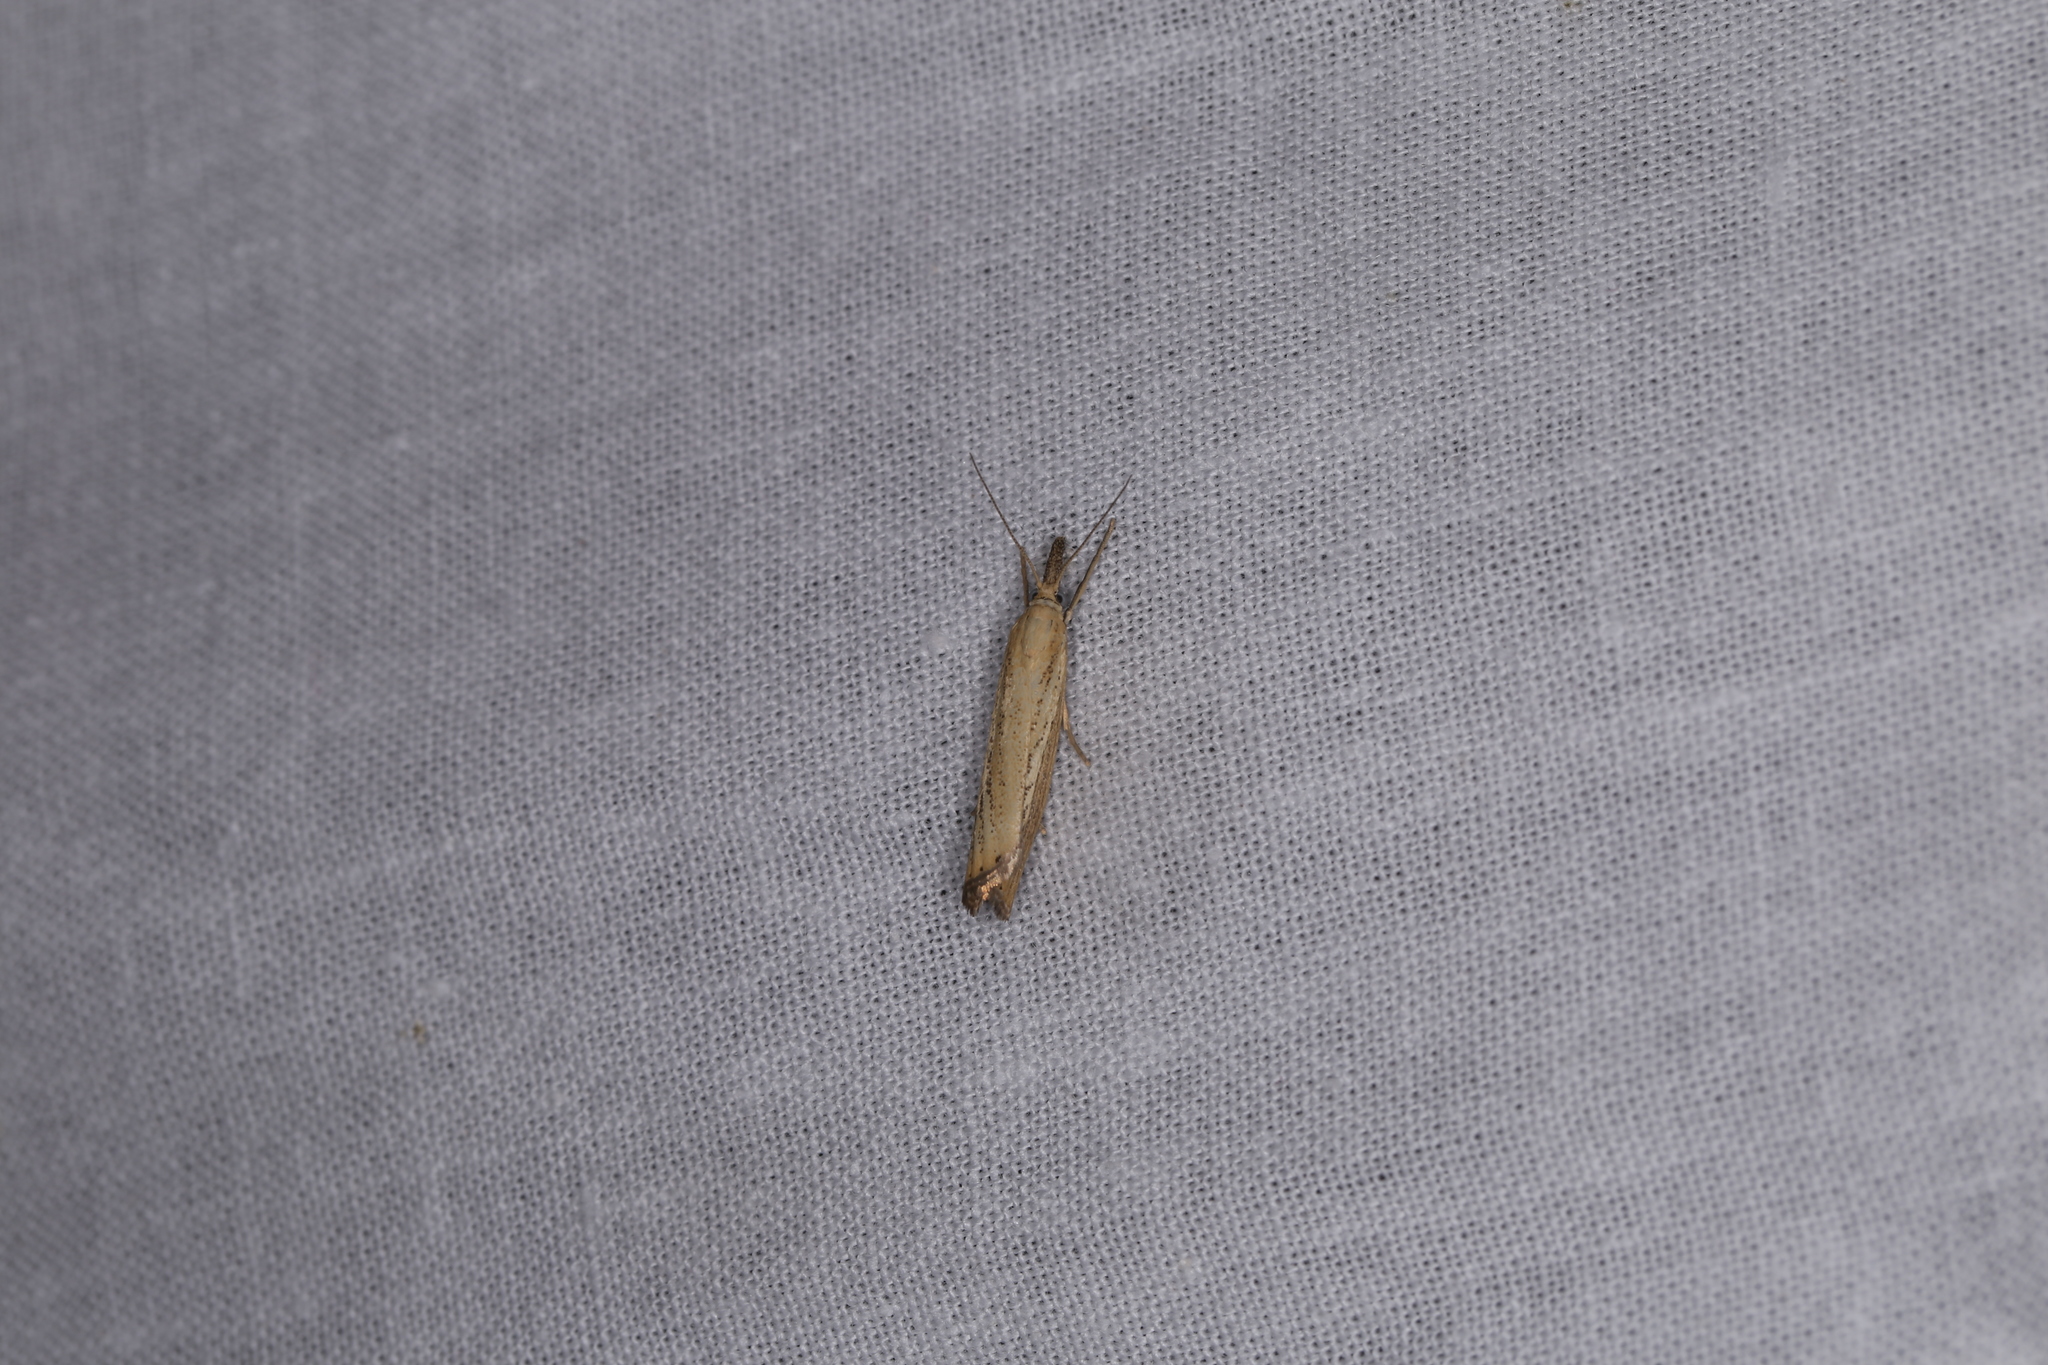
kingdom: Animalia
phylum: Arthropoda
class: Insecta
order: Lepidoptera
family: Crambidae
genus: Agriphila
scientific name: Agriphila straminella
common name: Straw grass-veneer
